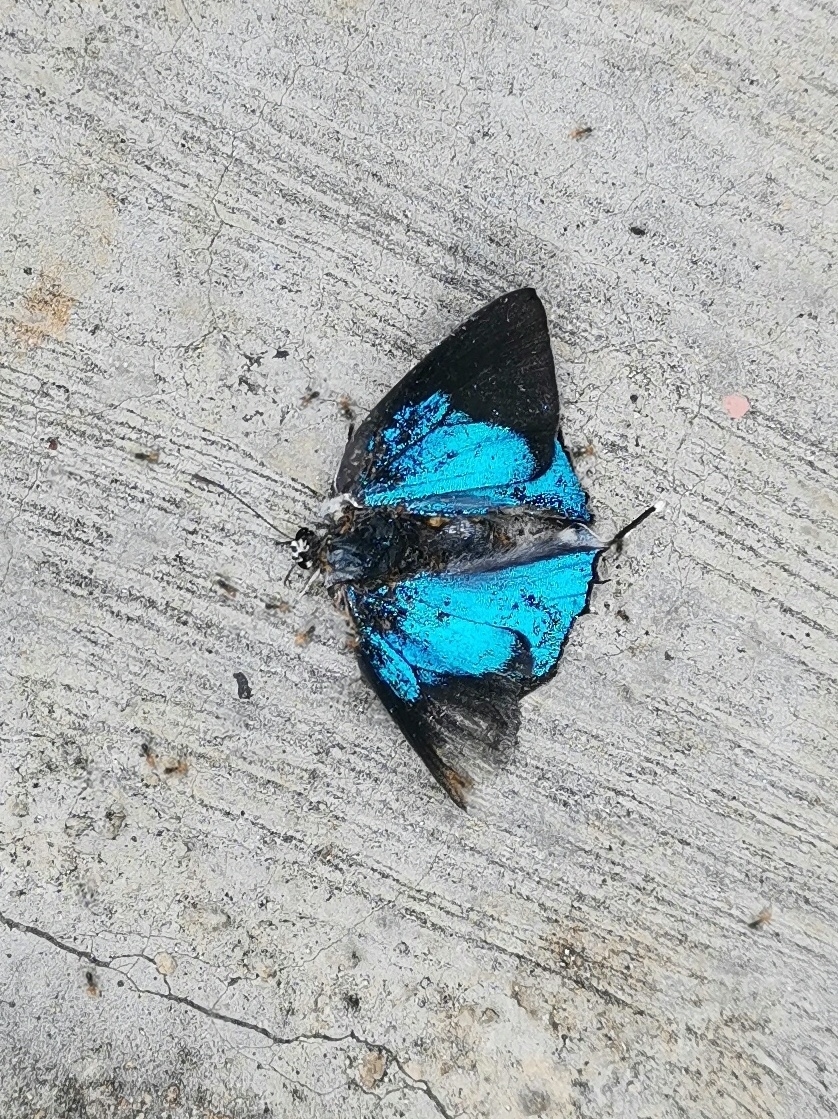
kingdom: Animalia
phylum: Arthropoda
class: Insecta
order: Lepidoptera
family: Lycaenidae
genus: Tajuria
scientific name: Tajuria cippus
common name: Peacock royal
